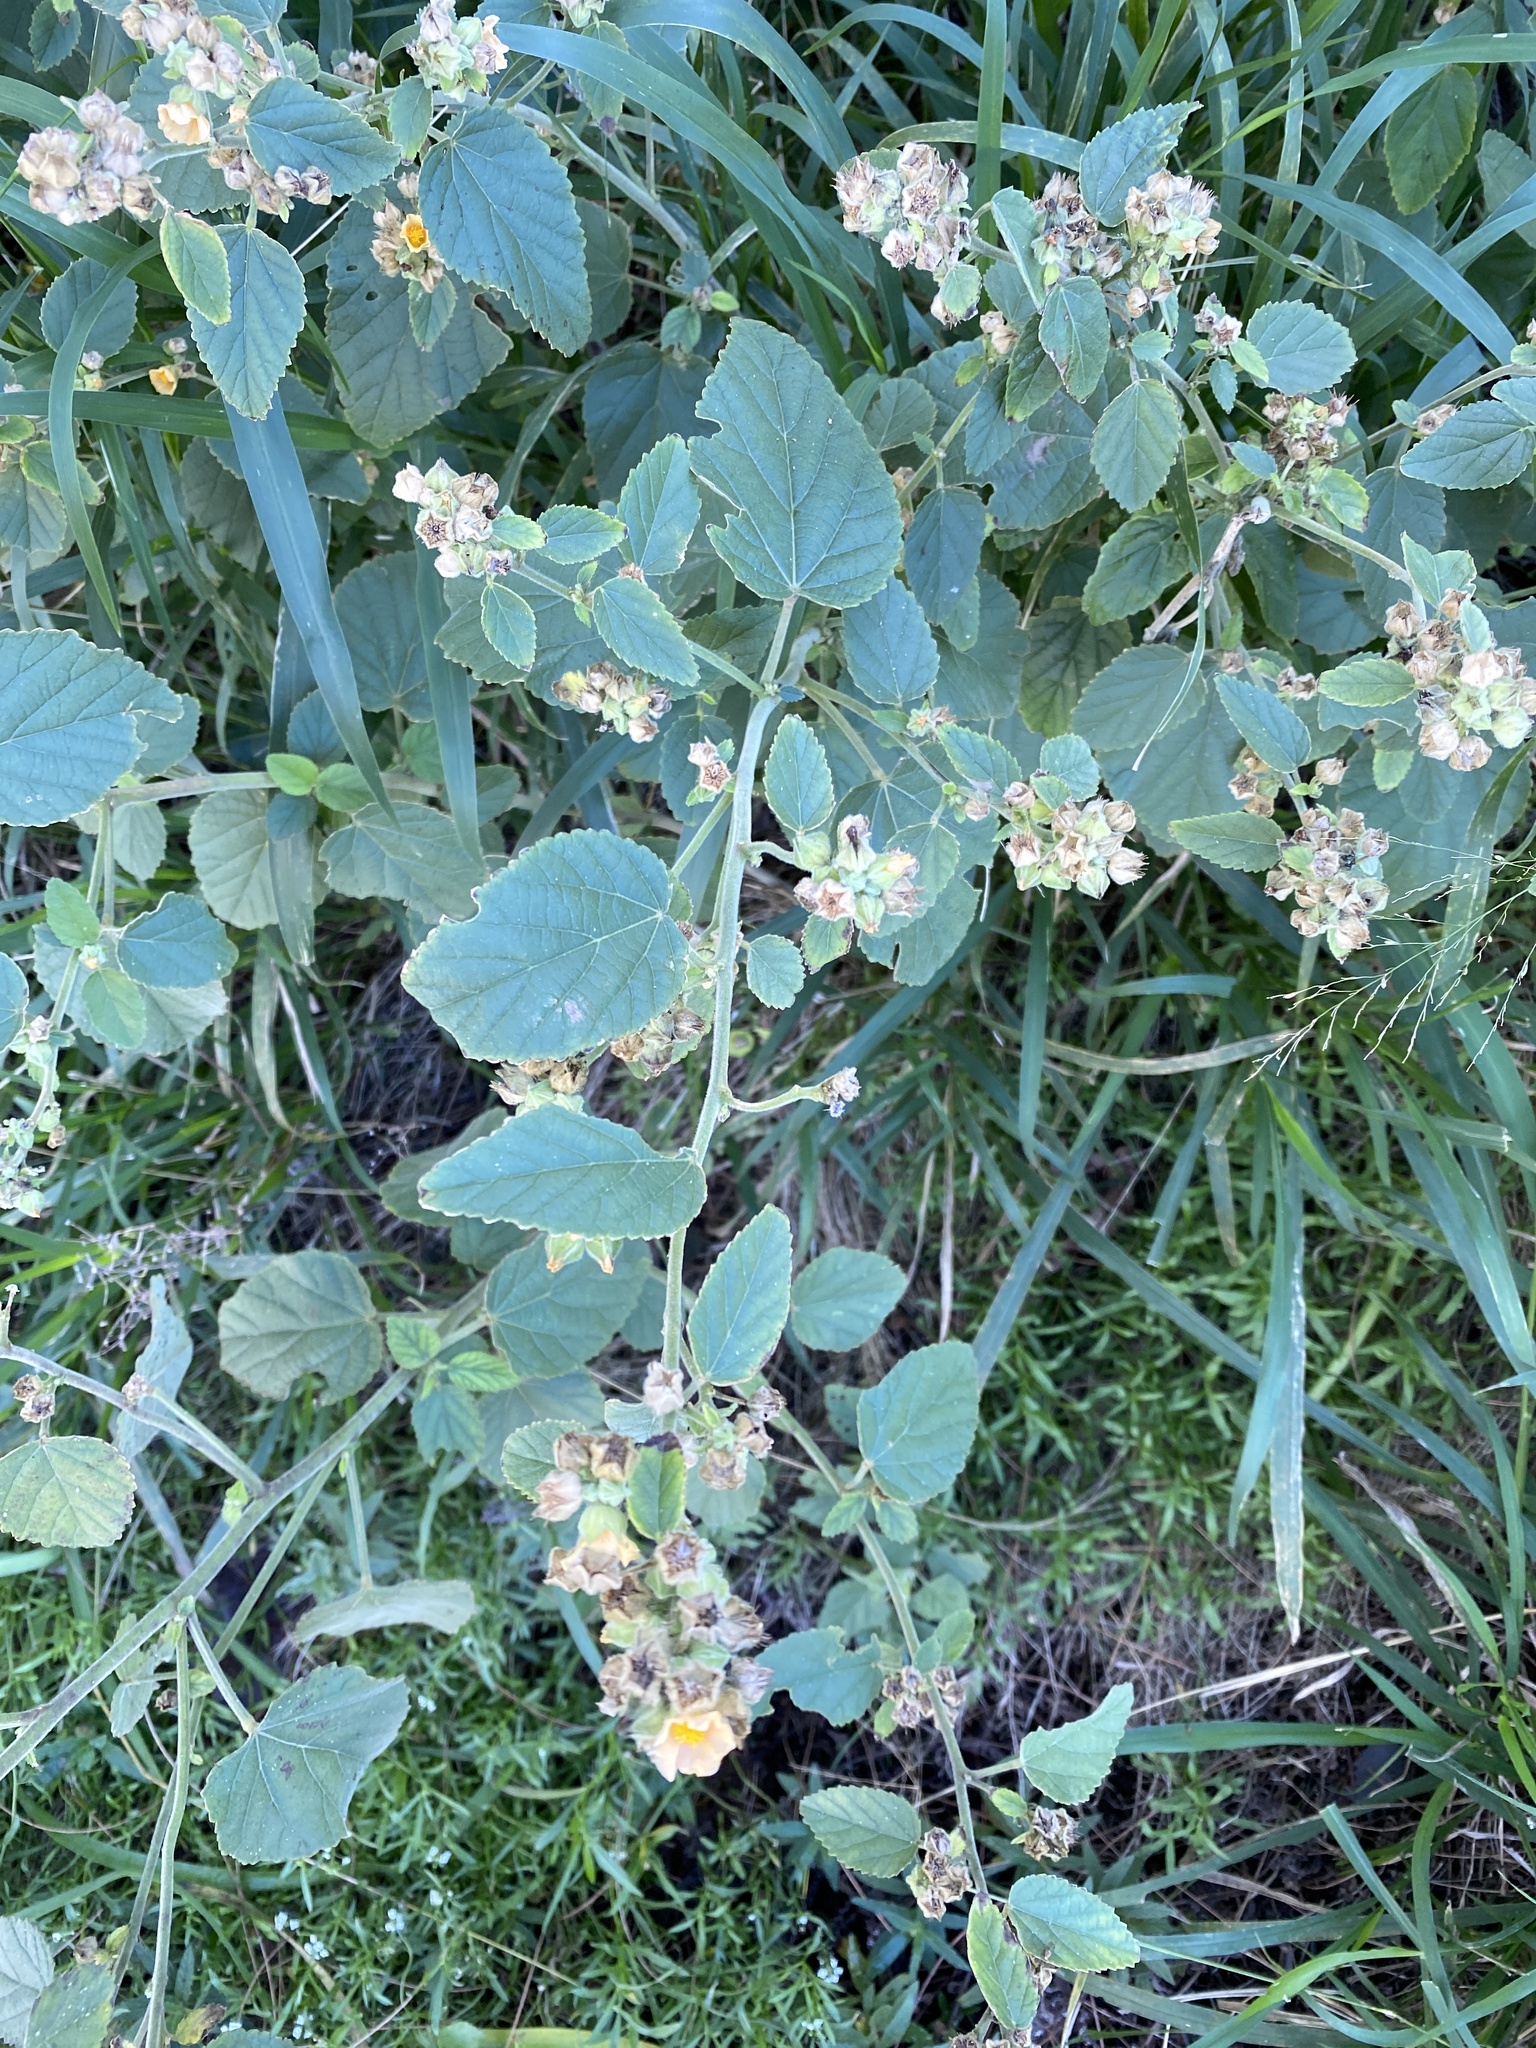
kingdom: Plantae
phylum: Tracheophyta
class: Magnoliopsida
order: Malvales
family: Malvaceae
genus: Sida
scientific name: Sida cordifolia
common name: Ilima
